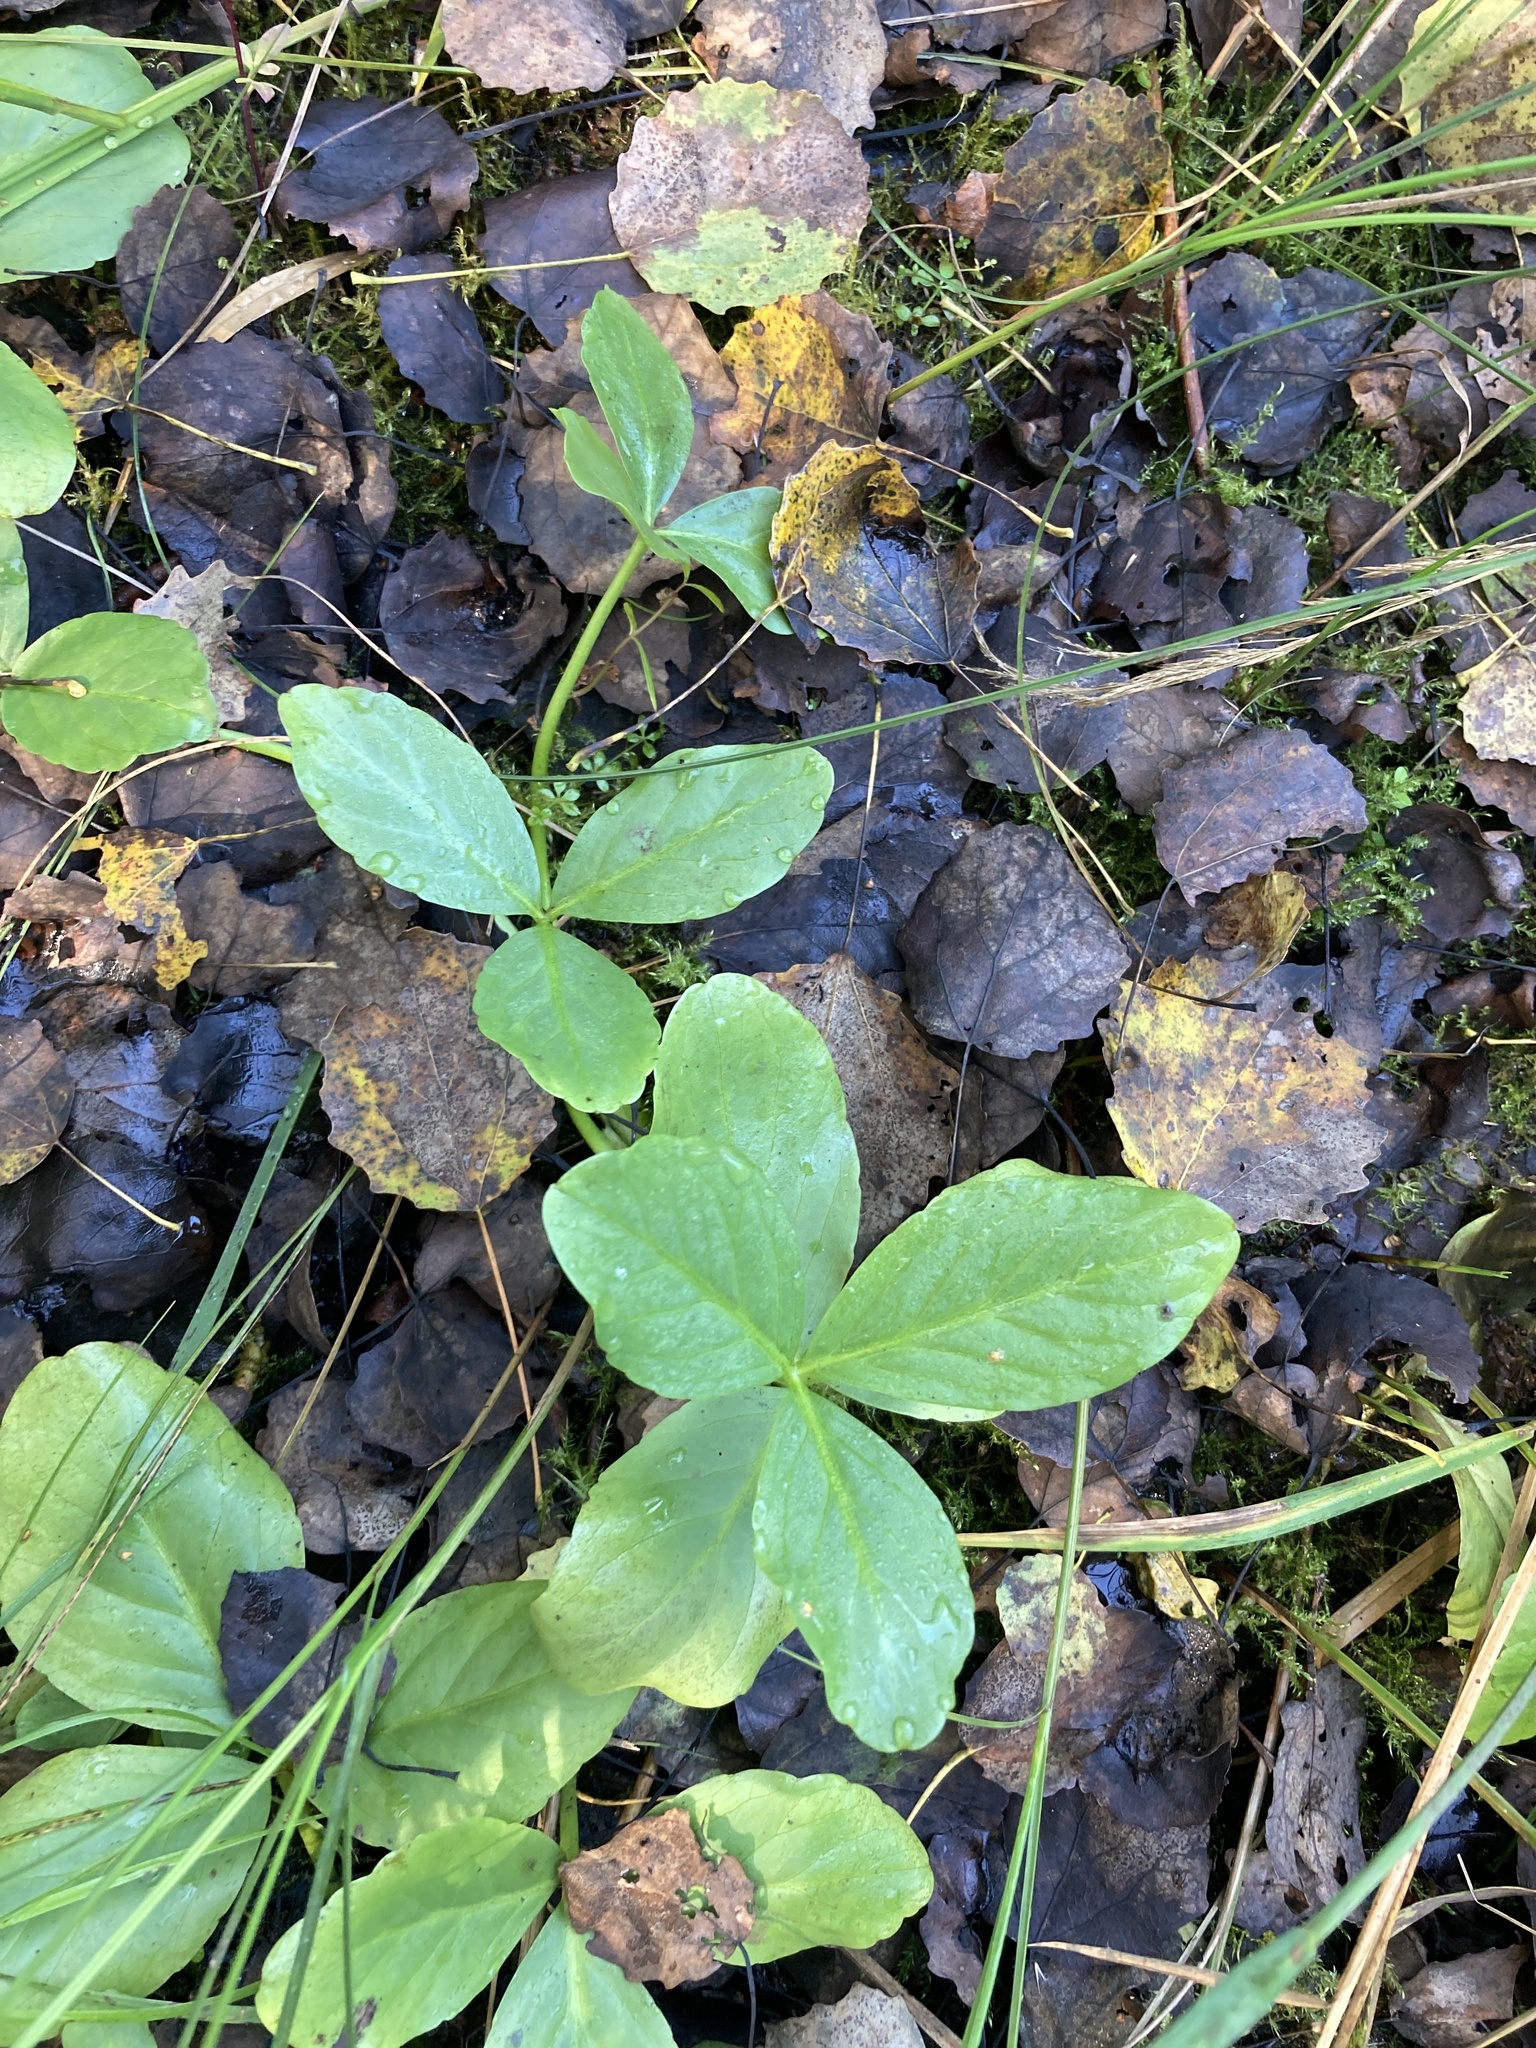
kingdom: Plantae
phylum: Tracheophyta
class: Magnoliopsida
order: Asterales
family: Menyanthaceae
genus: Menyanthes
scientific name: Menyanthes trifoliata
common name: Bogbean
